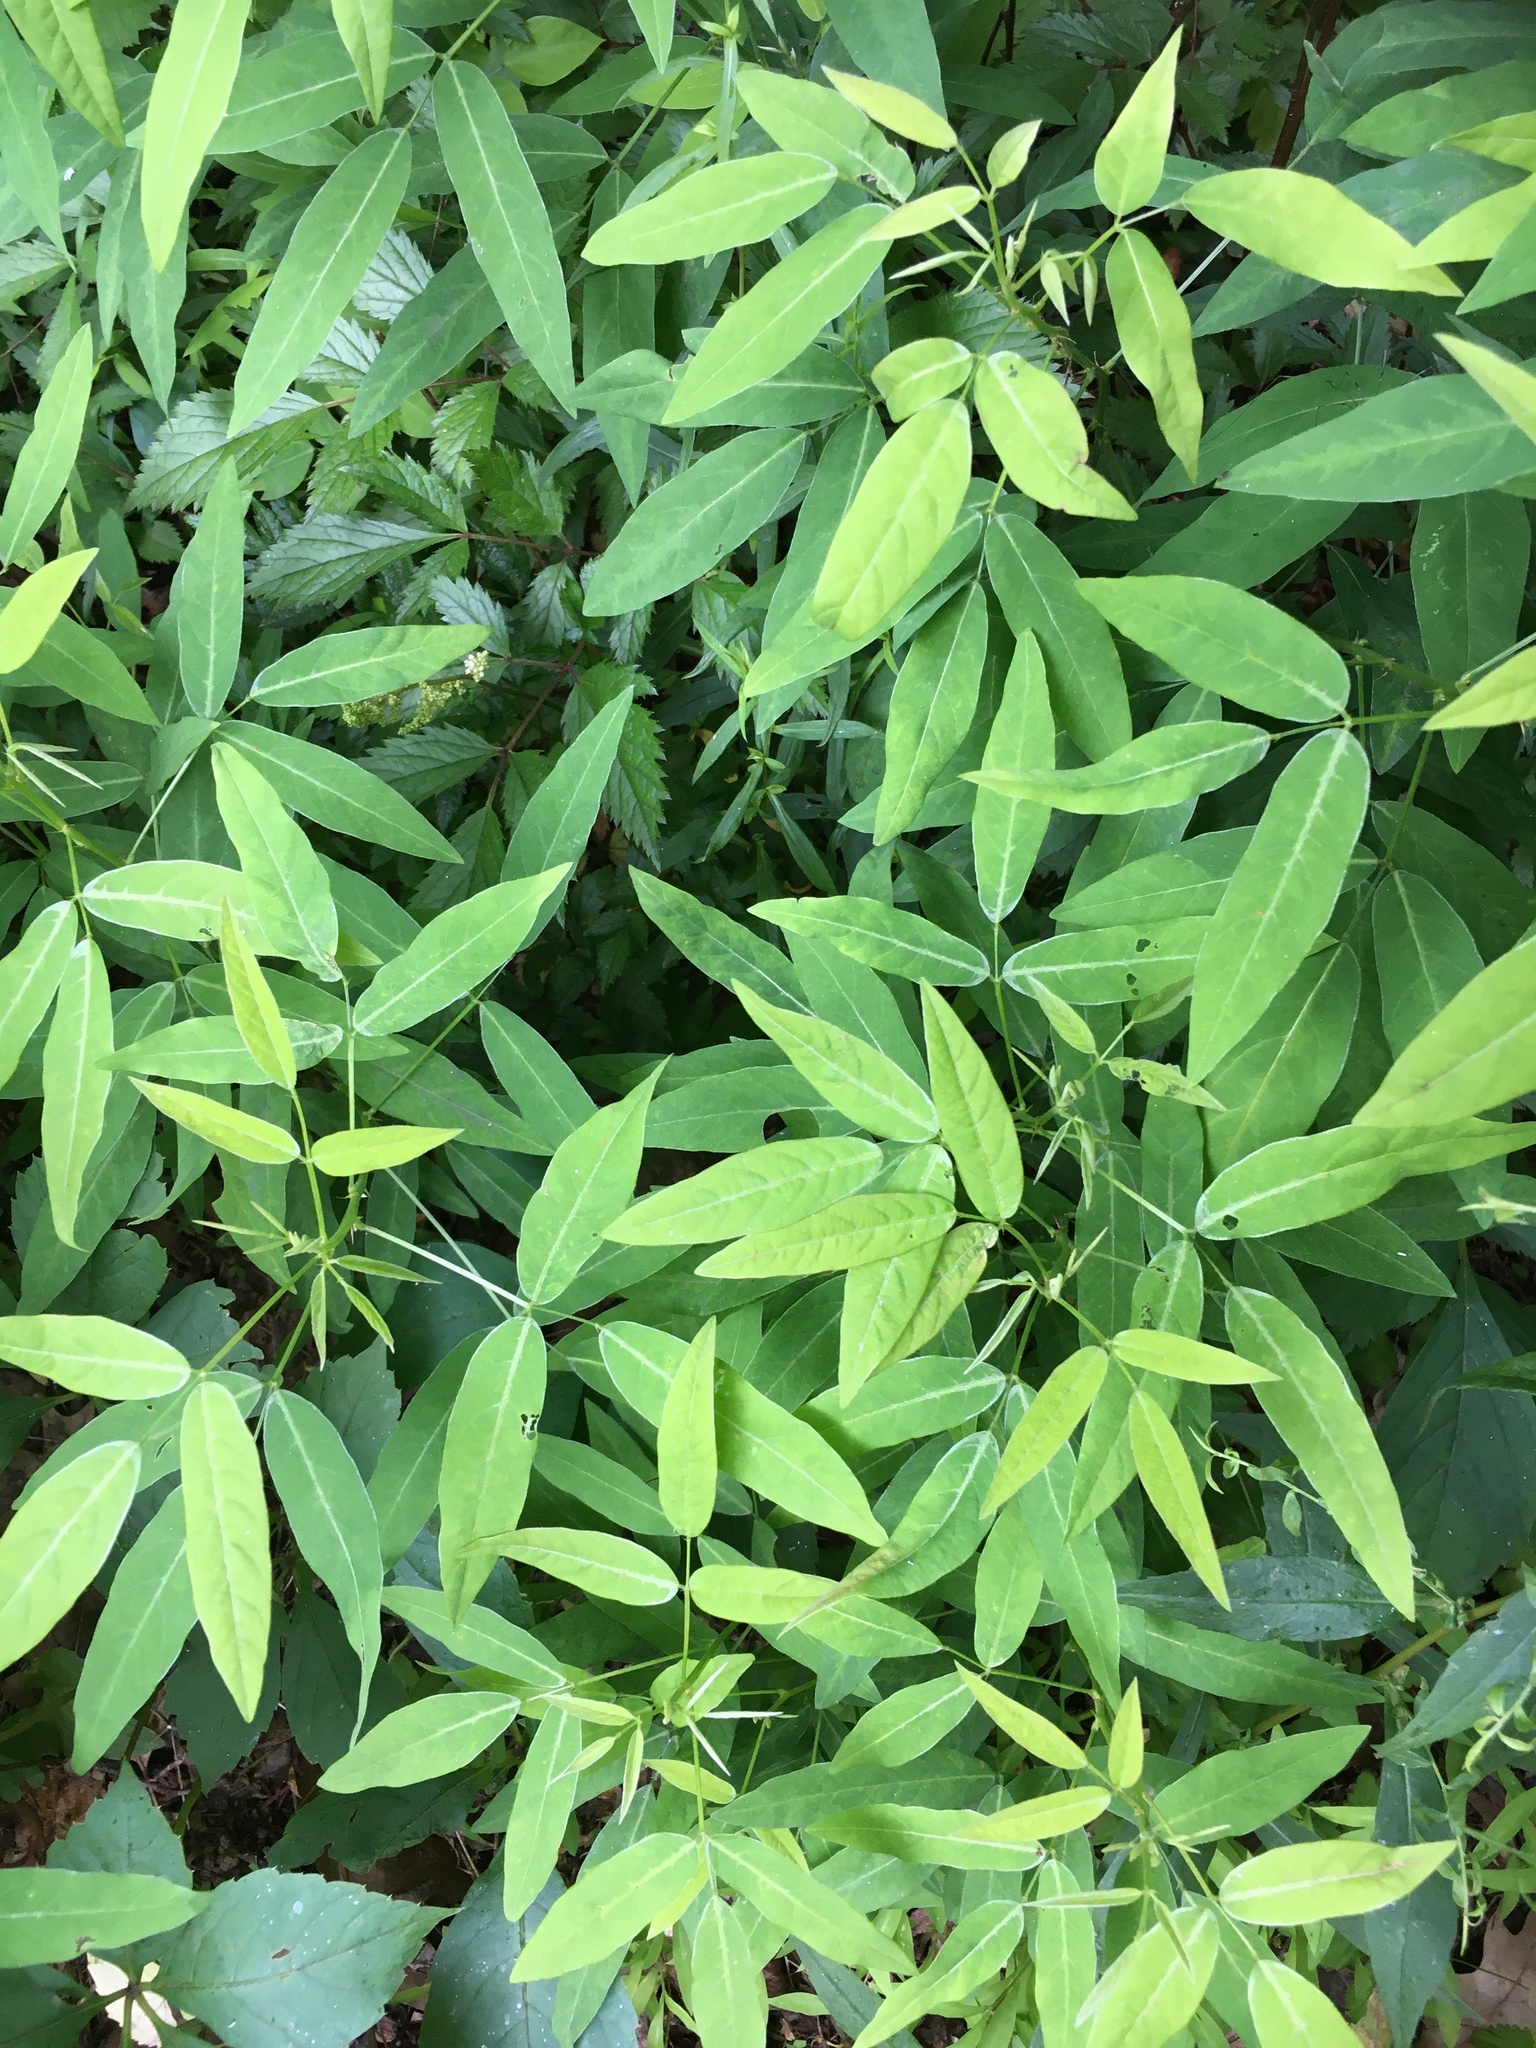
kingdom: Plantae
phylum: Tracheophyta
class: Magnoliopsida
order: Fabales
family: Fabaceae
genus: Desmodium
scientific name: Desmodium paniculatum
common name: Panicled tick-clover
